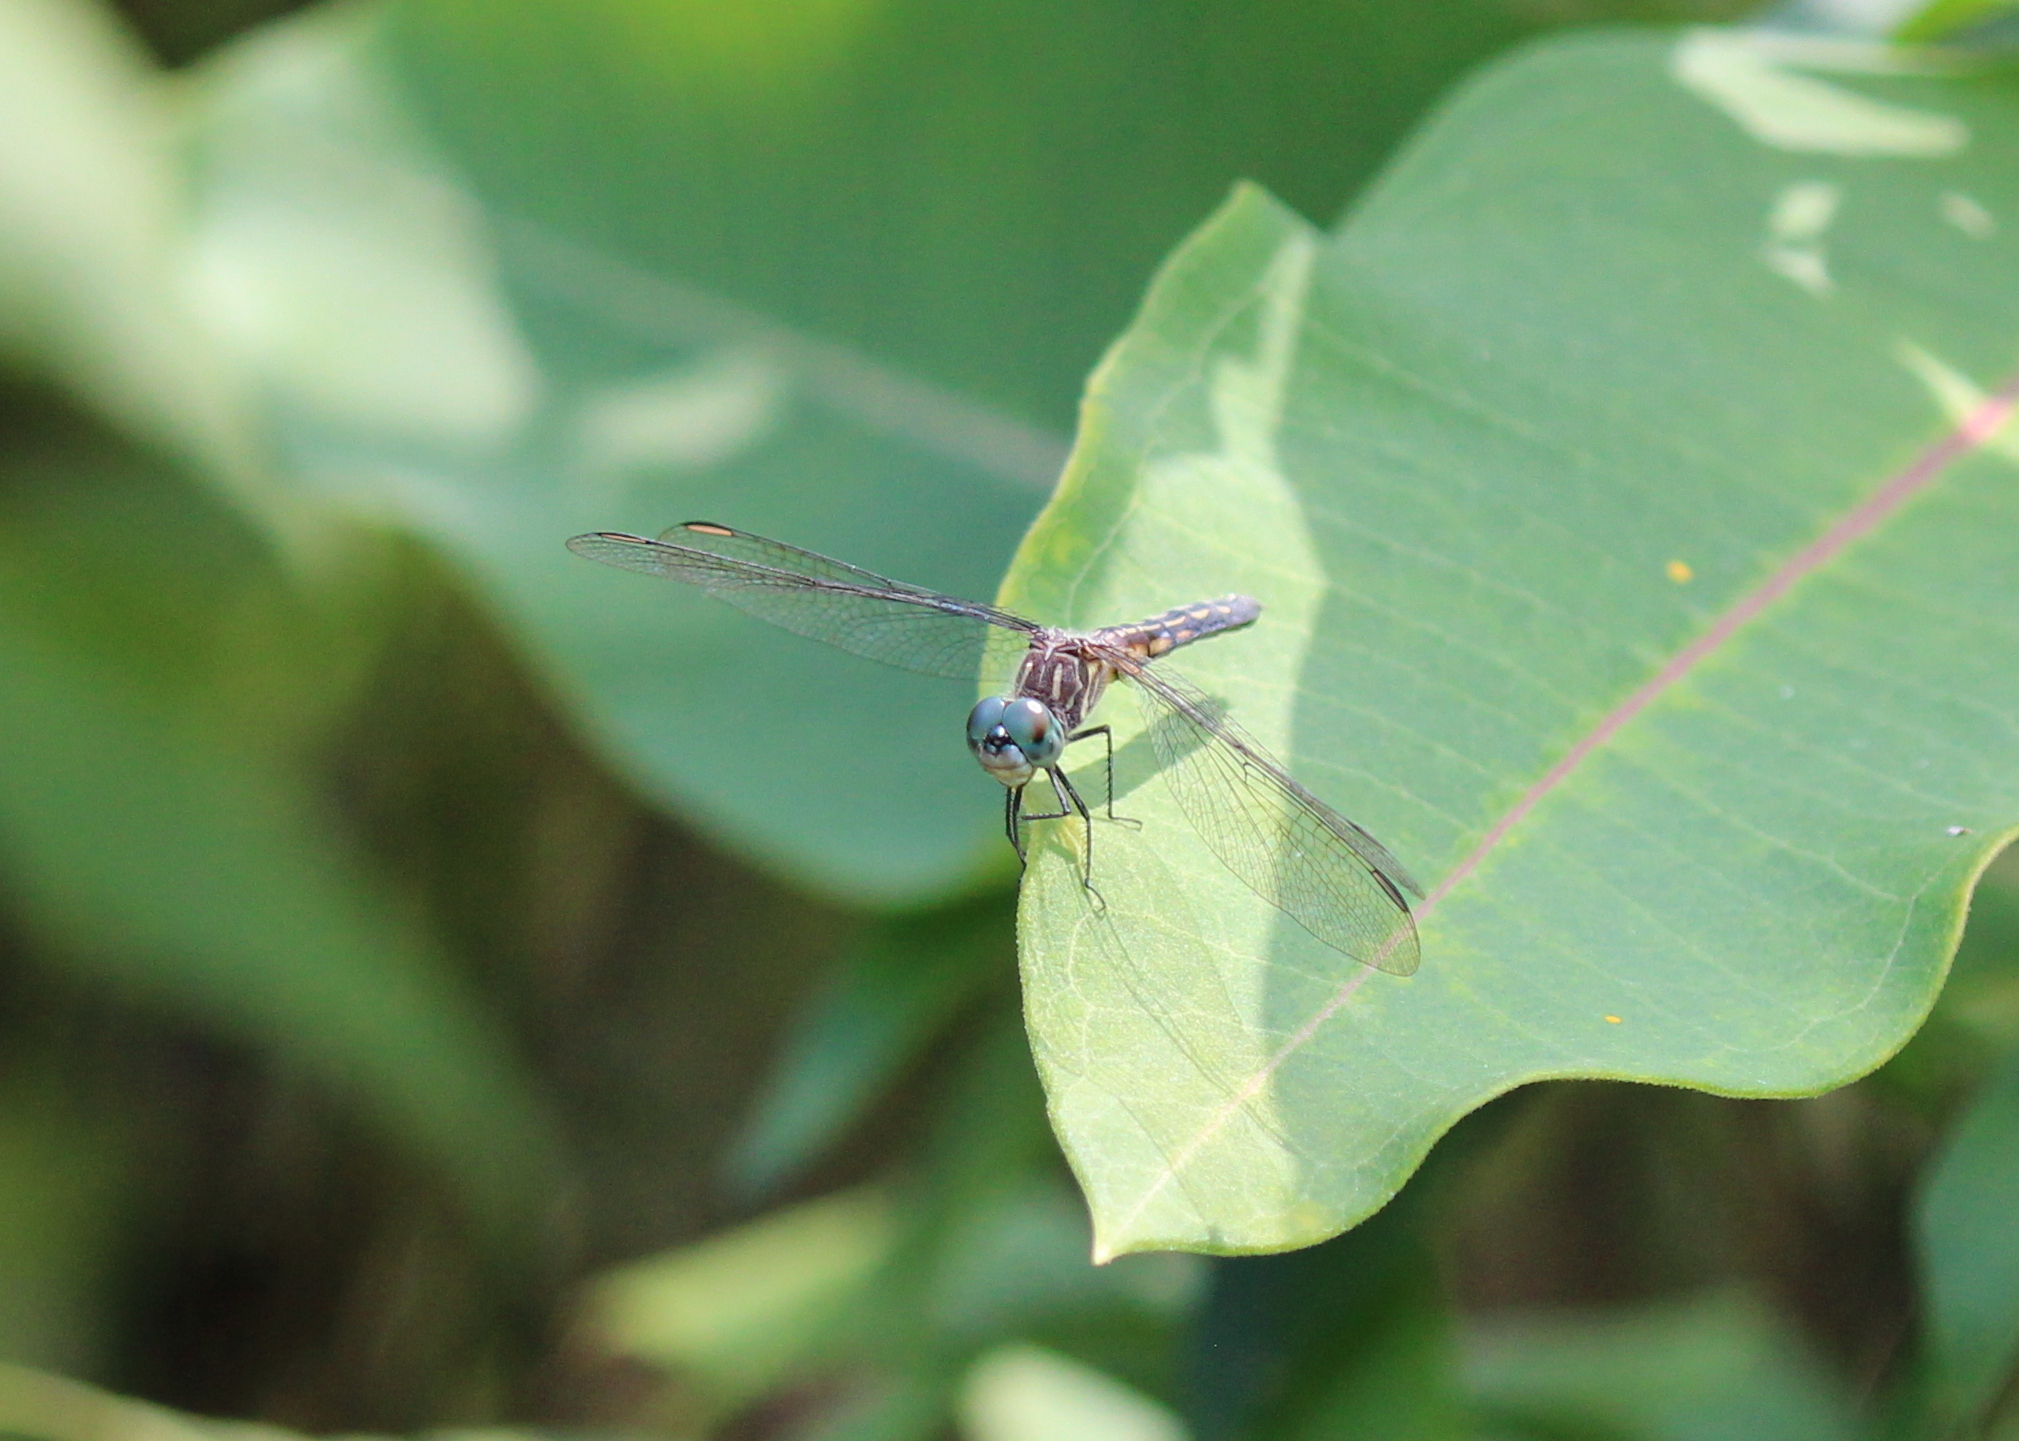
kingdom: Animalia
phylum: Arthropoda
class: Insecta
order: Odonata
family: Libellulidae
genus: Pachydiplax
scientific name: Pachydiplax longipennis
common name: Blue dasher
